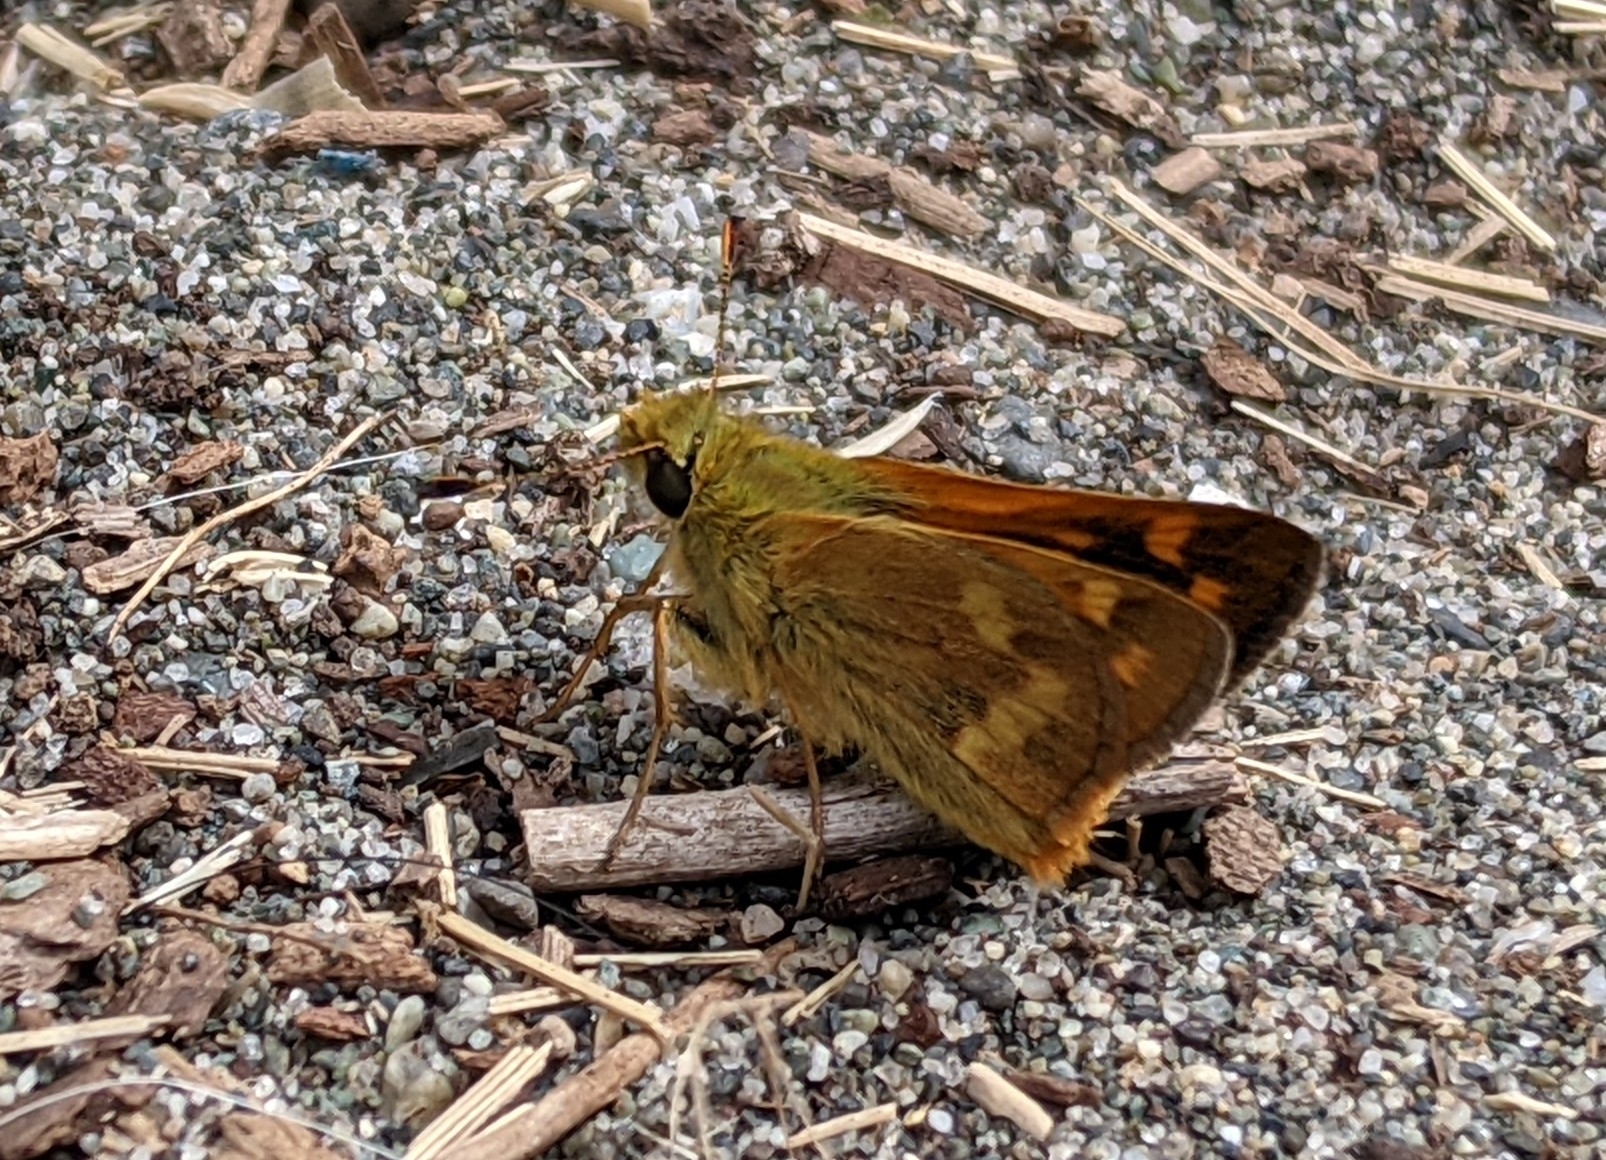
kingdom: Animalia
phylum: Arthropoda
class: Insecta
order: Lepidoptera
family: Hesperiidae
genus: Ochlodes
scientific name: Ochlodes sylvanoides
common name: Woodland skipper
